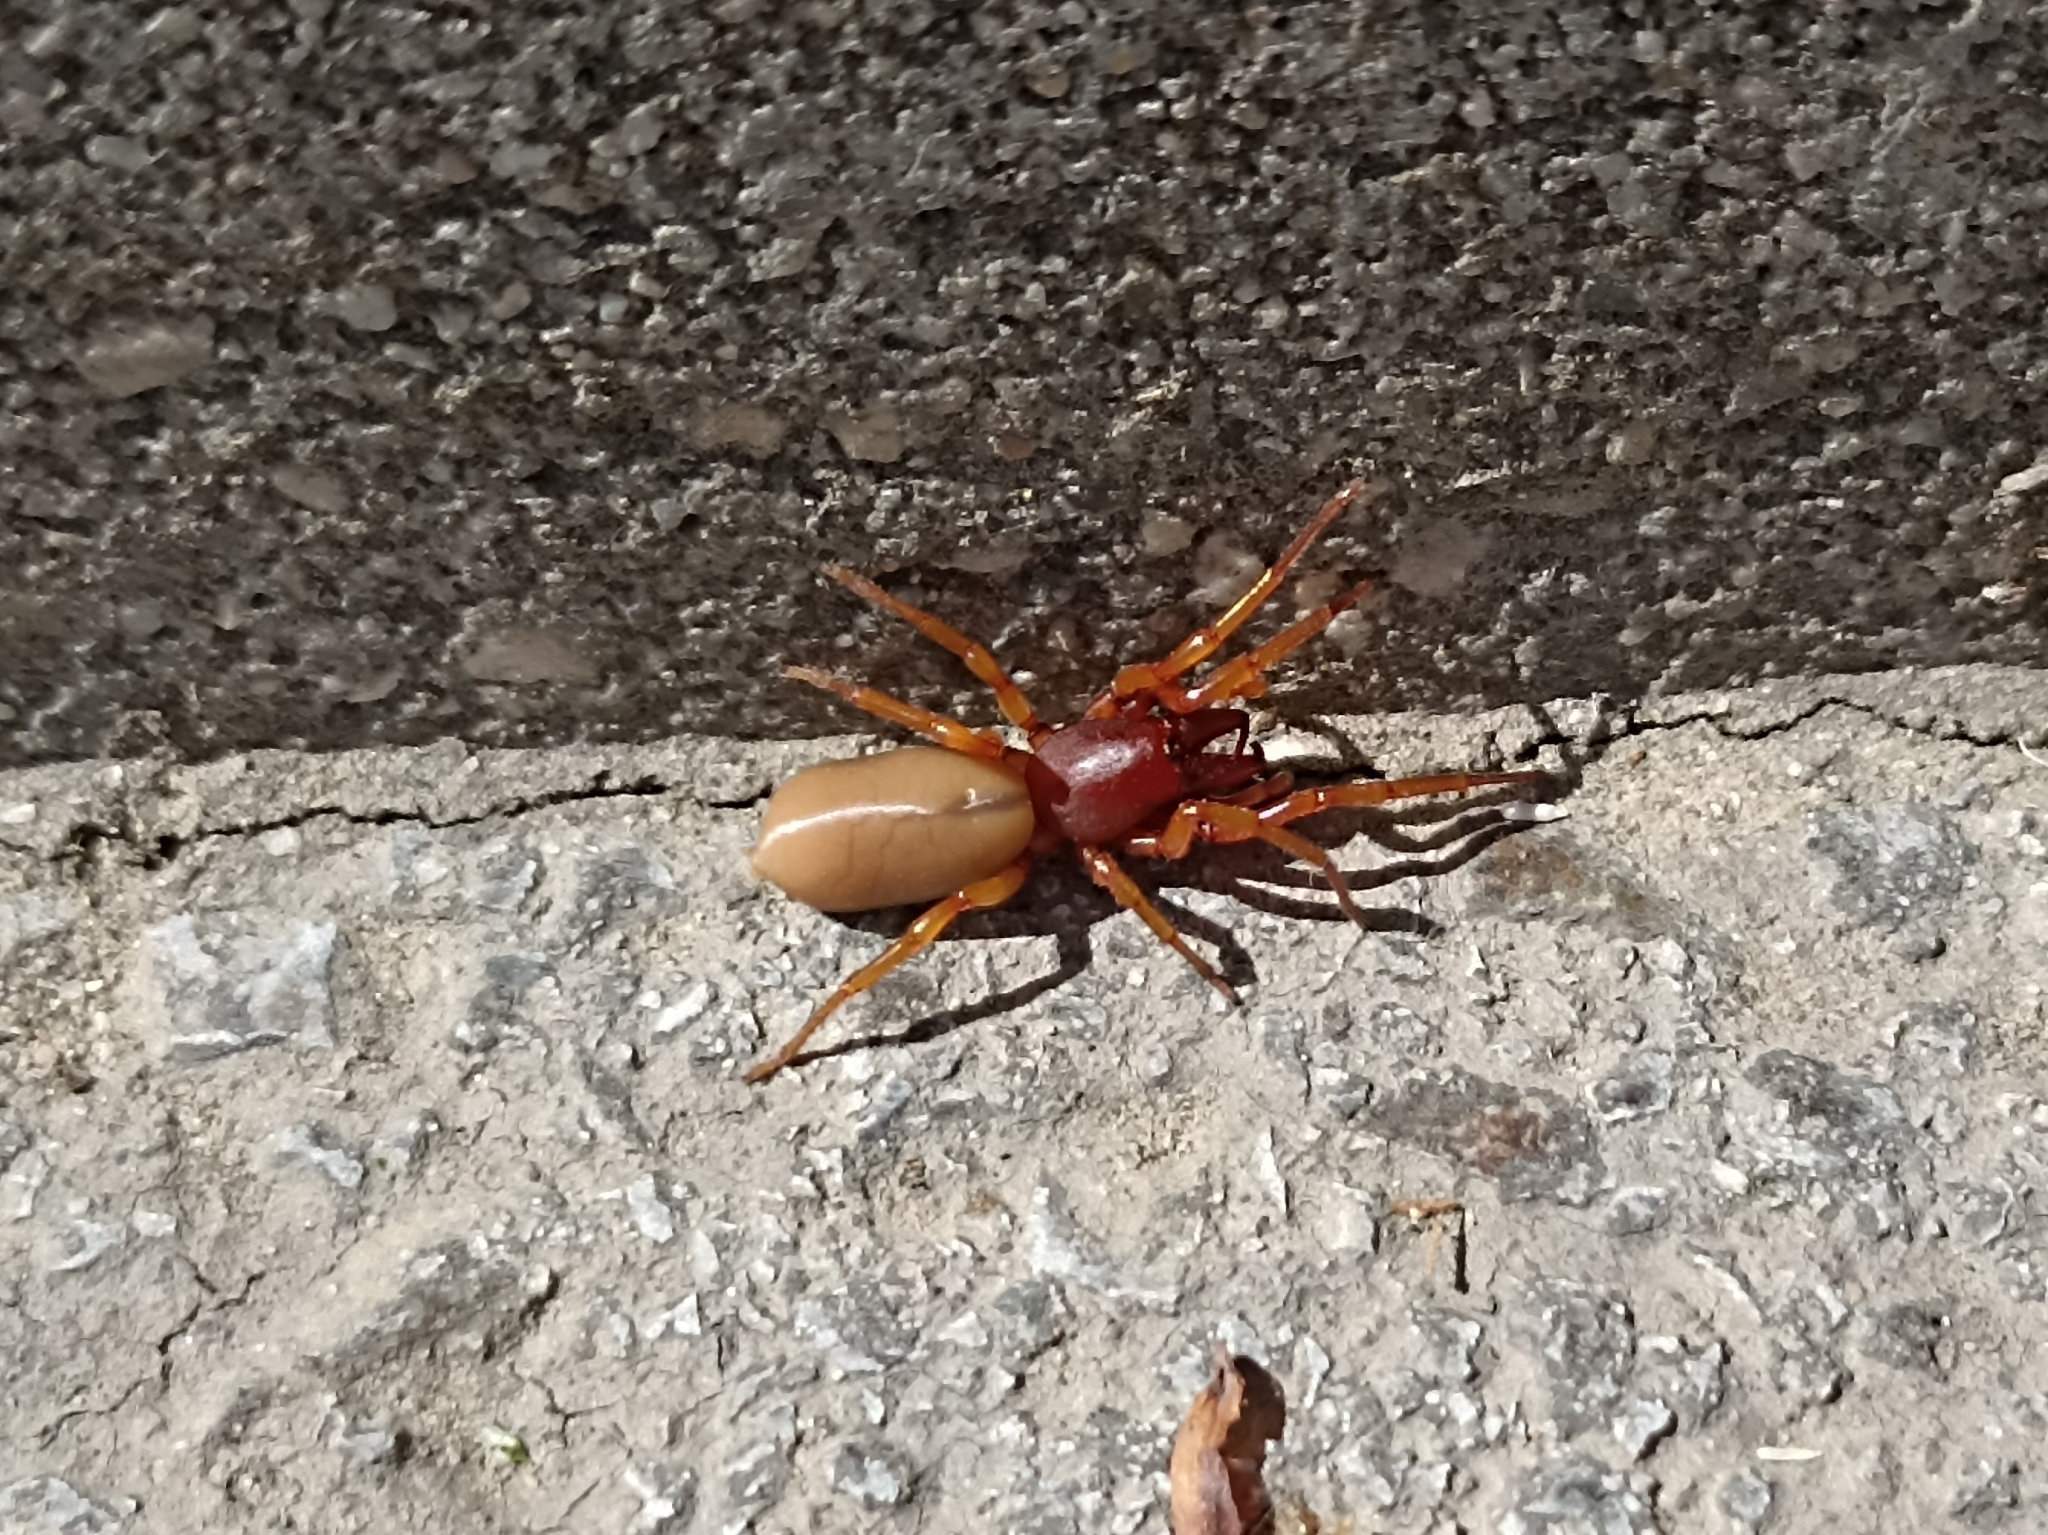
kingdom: Animalia
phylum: Arthropoda
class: Arachnida
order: Araneae
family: Dysderidae
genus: Dysdera
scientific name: Dysdera crocata
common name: Woodlouse spider
